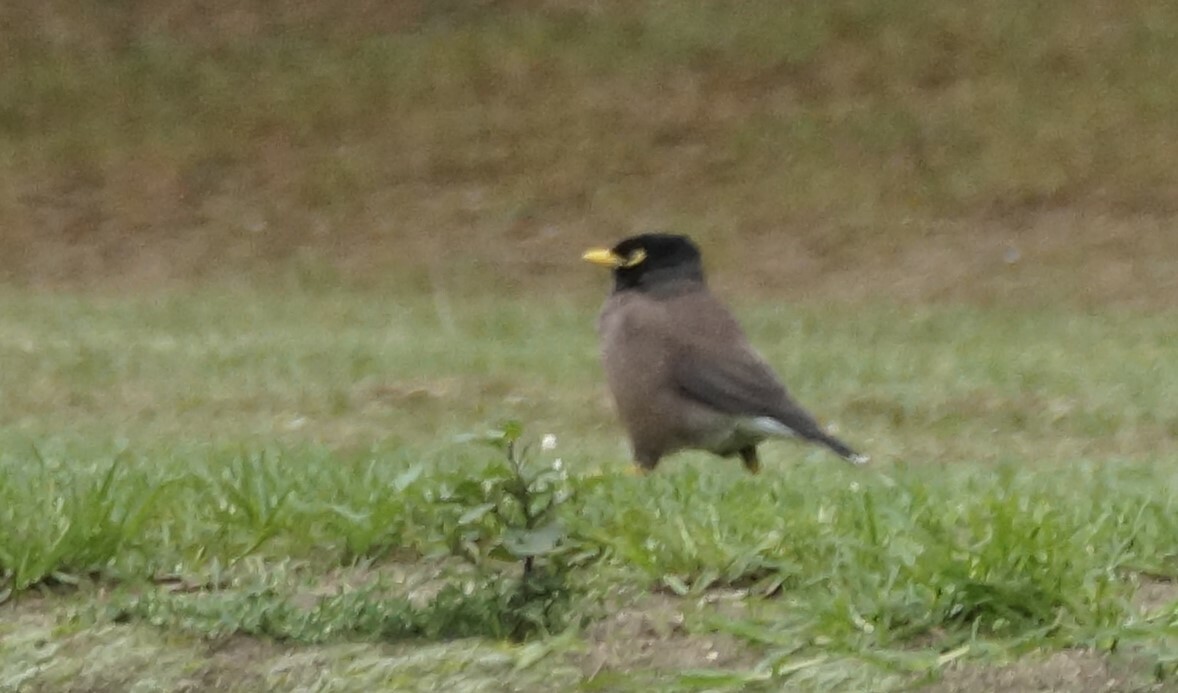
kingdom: Animalia
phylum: Chordata
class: Aves
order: Passeriformes
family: Sturnidae
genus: Acridotheres
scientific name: Acridotheres tristis
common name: Common myna
